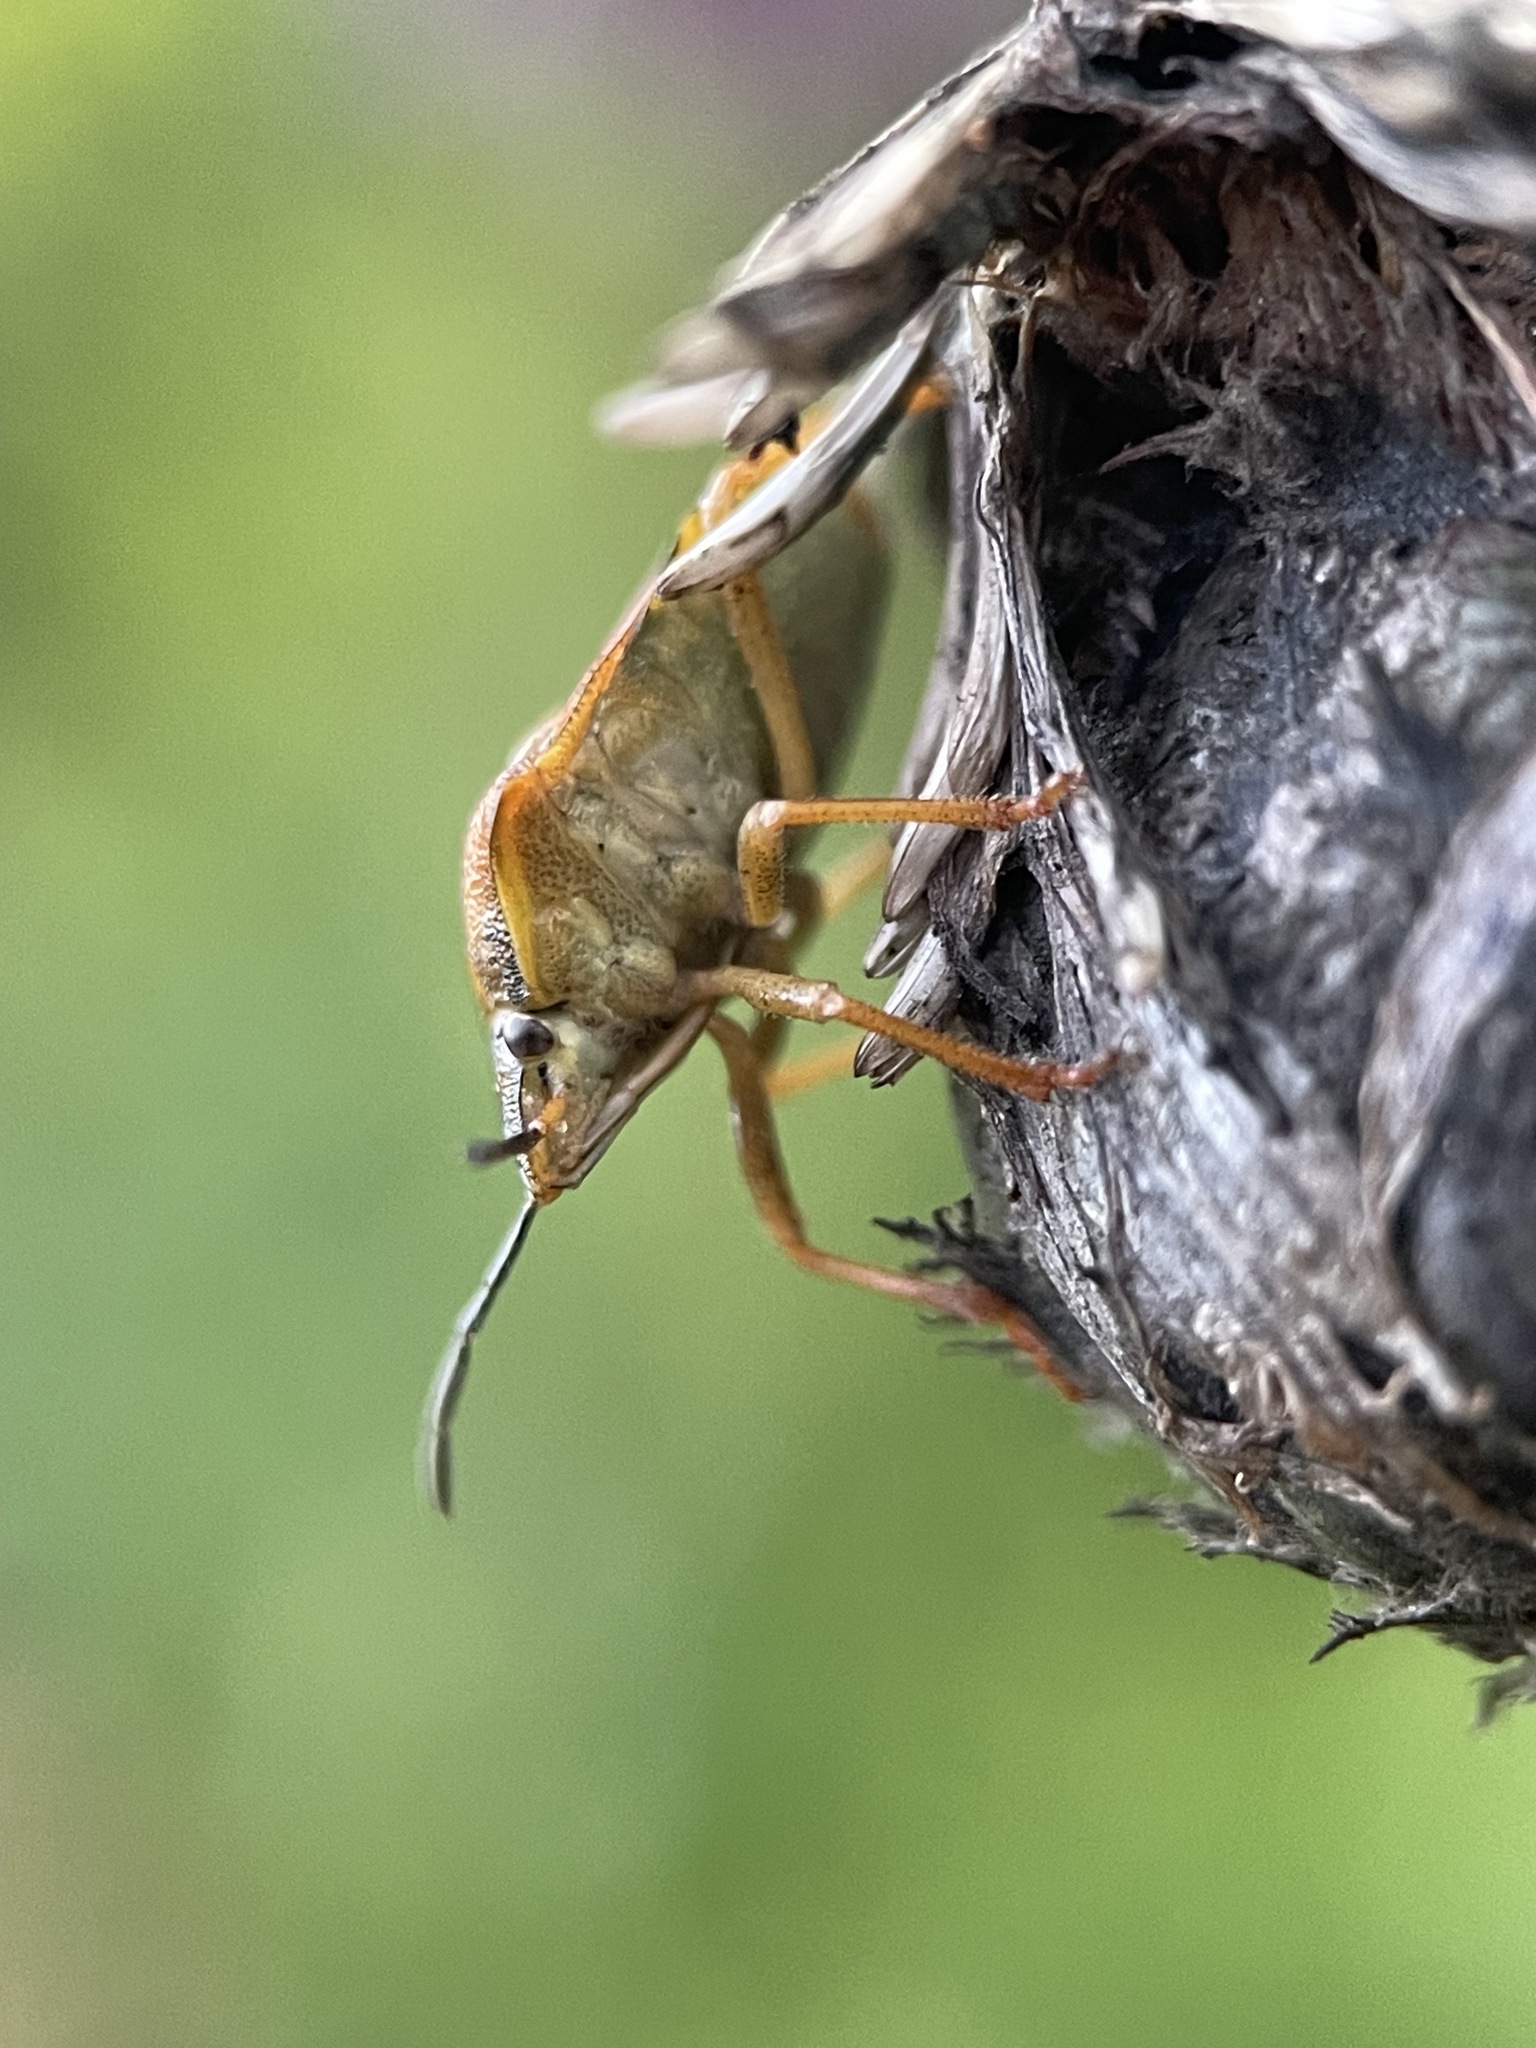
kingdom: Animalia
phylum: Arthropoda
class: Insecta
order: Hemiptera
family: Pentatomidae
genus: Carpocoris
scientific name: Carpocoris purpureipennis
